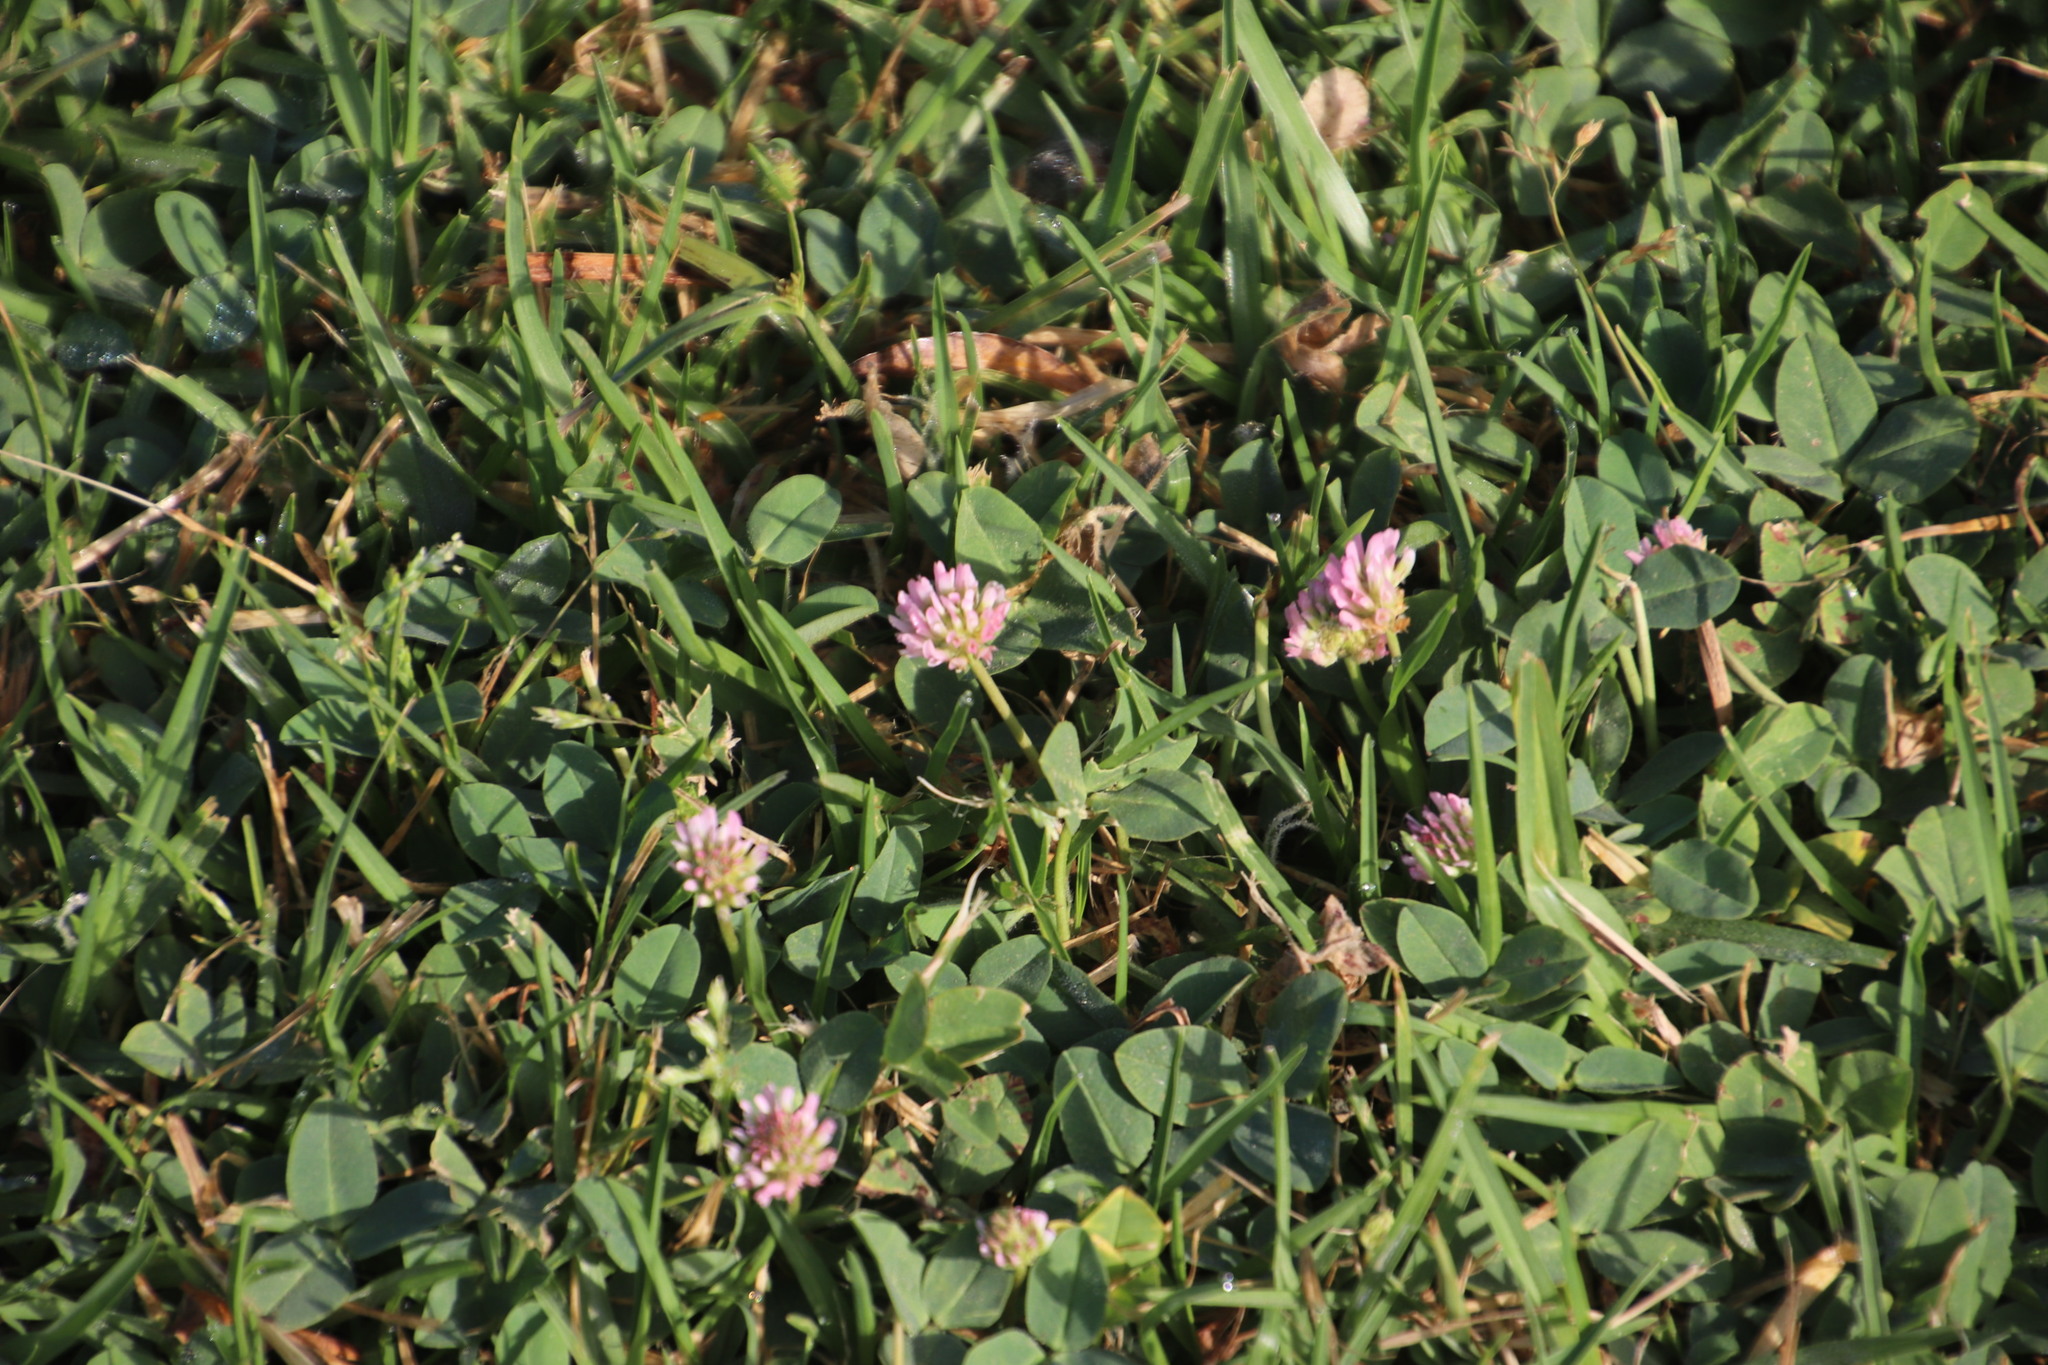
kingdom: Plantae
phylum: Tracheophyta
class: Magnoliopsida
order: Fabales
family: Fabaceae
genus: Trifolium
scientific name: Trifolium fragiferum
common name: Strawberry clover
